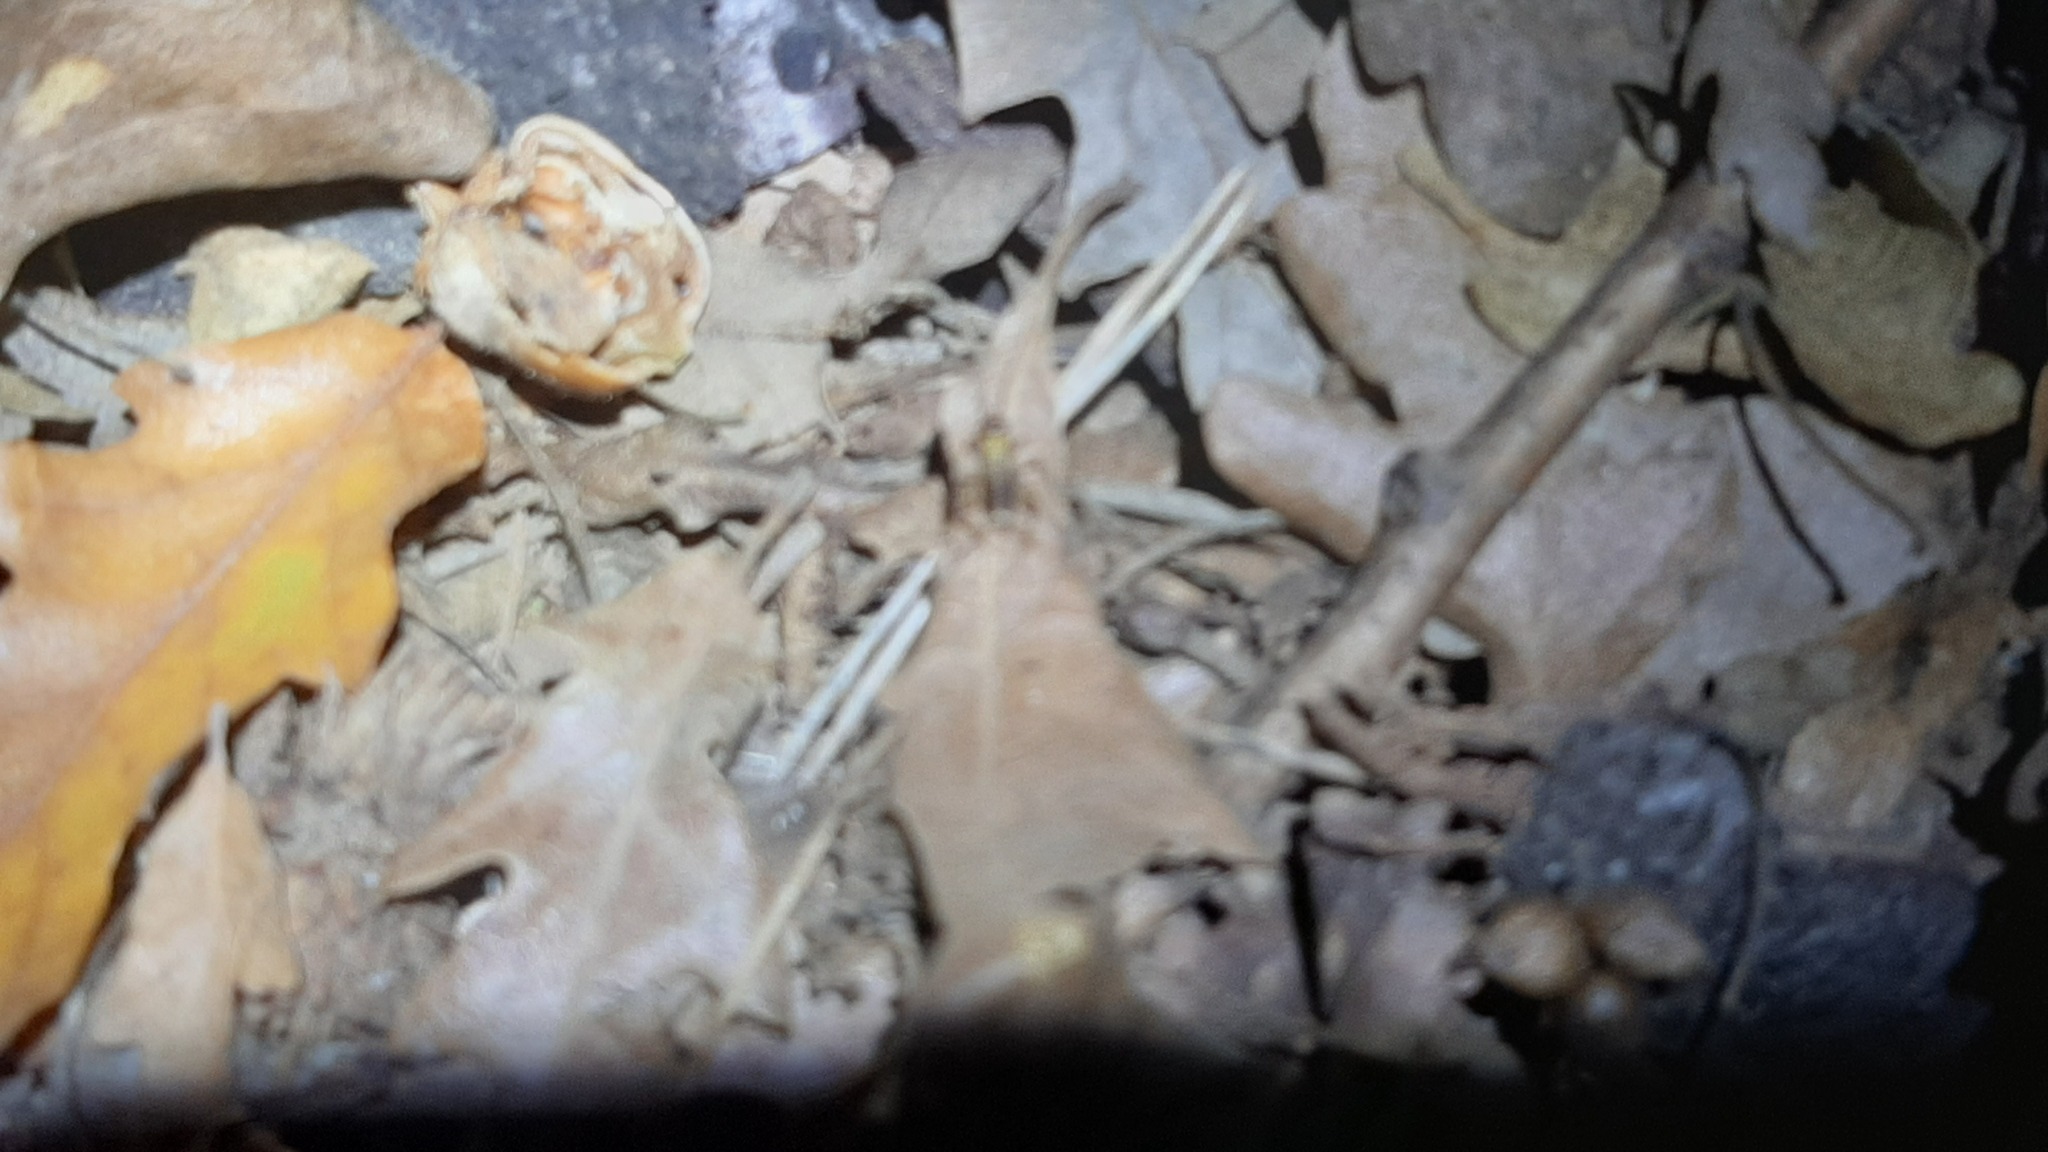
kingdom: Animalia
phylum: Arthropoda
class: Insecta
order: Orthoptera
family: Trigonidiidae
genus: Nemobius
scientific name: Nemobius sylvestris
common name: Wood-cricket
